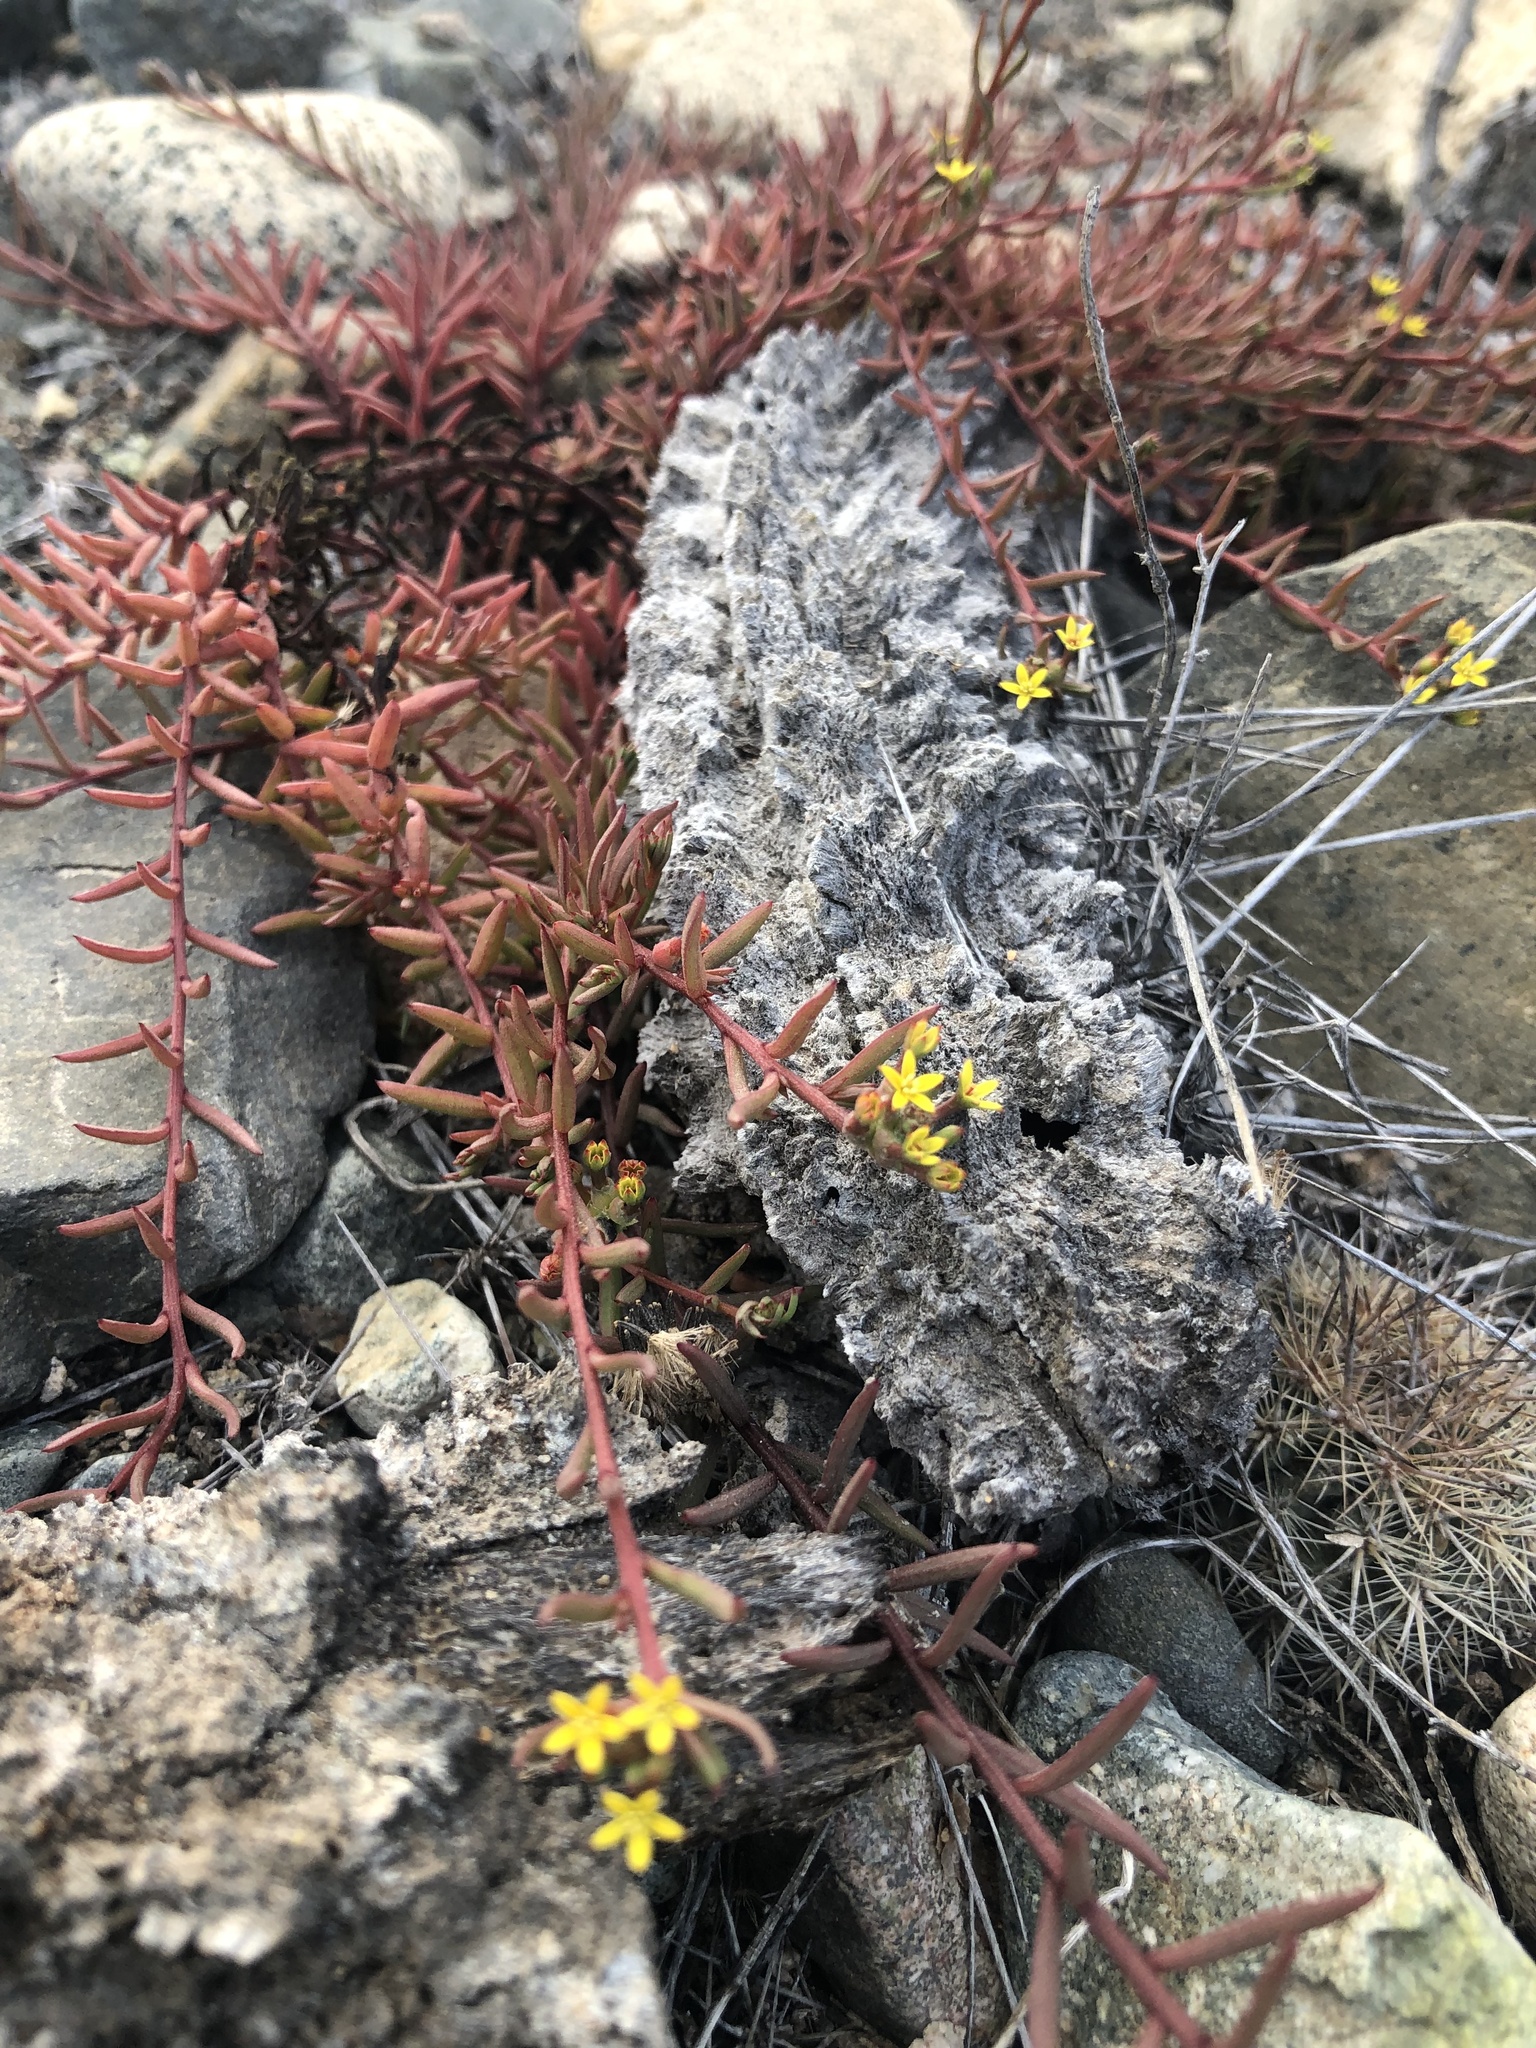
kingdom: Plantae
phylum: Tracheophyta
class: Magnoliopsida
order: Santalales
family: Schoepfiaceae
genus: Quinchamalium
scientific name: Quinchamalium chilense
